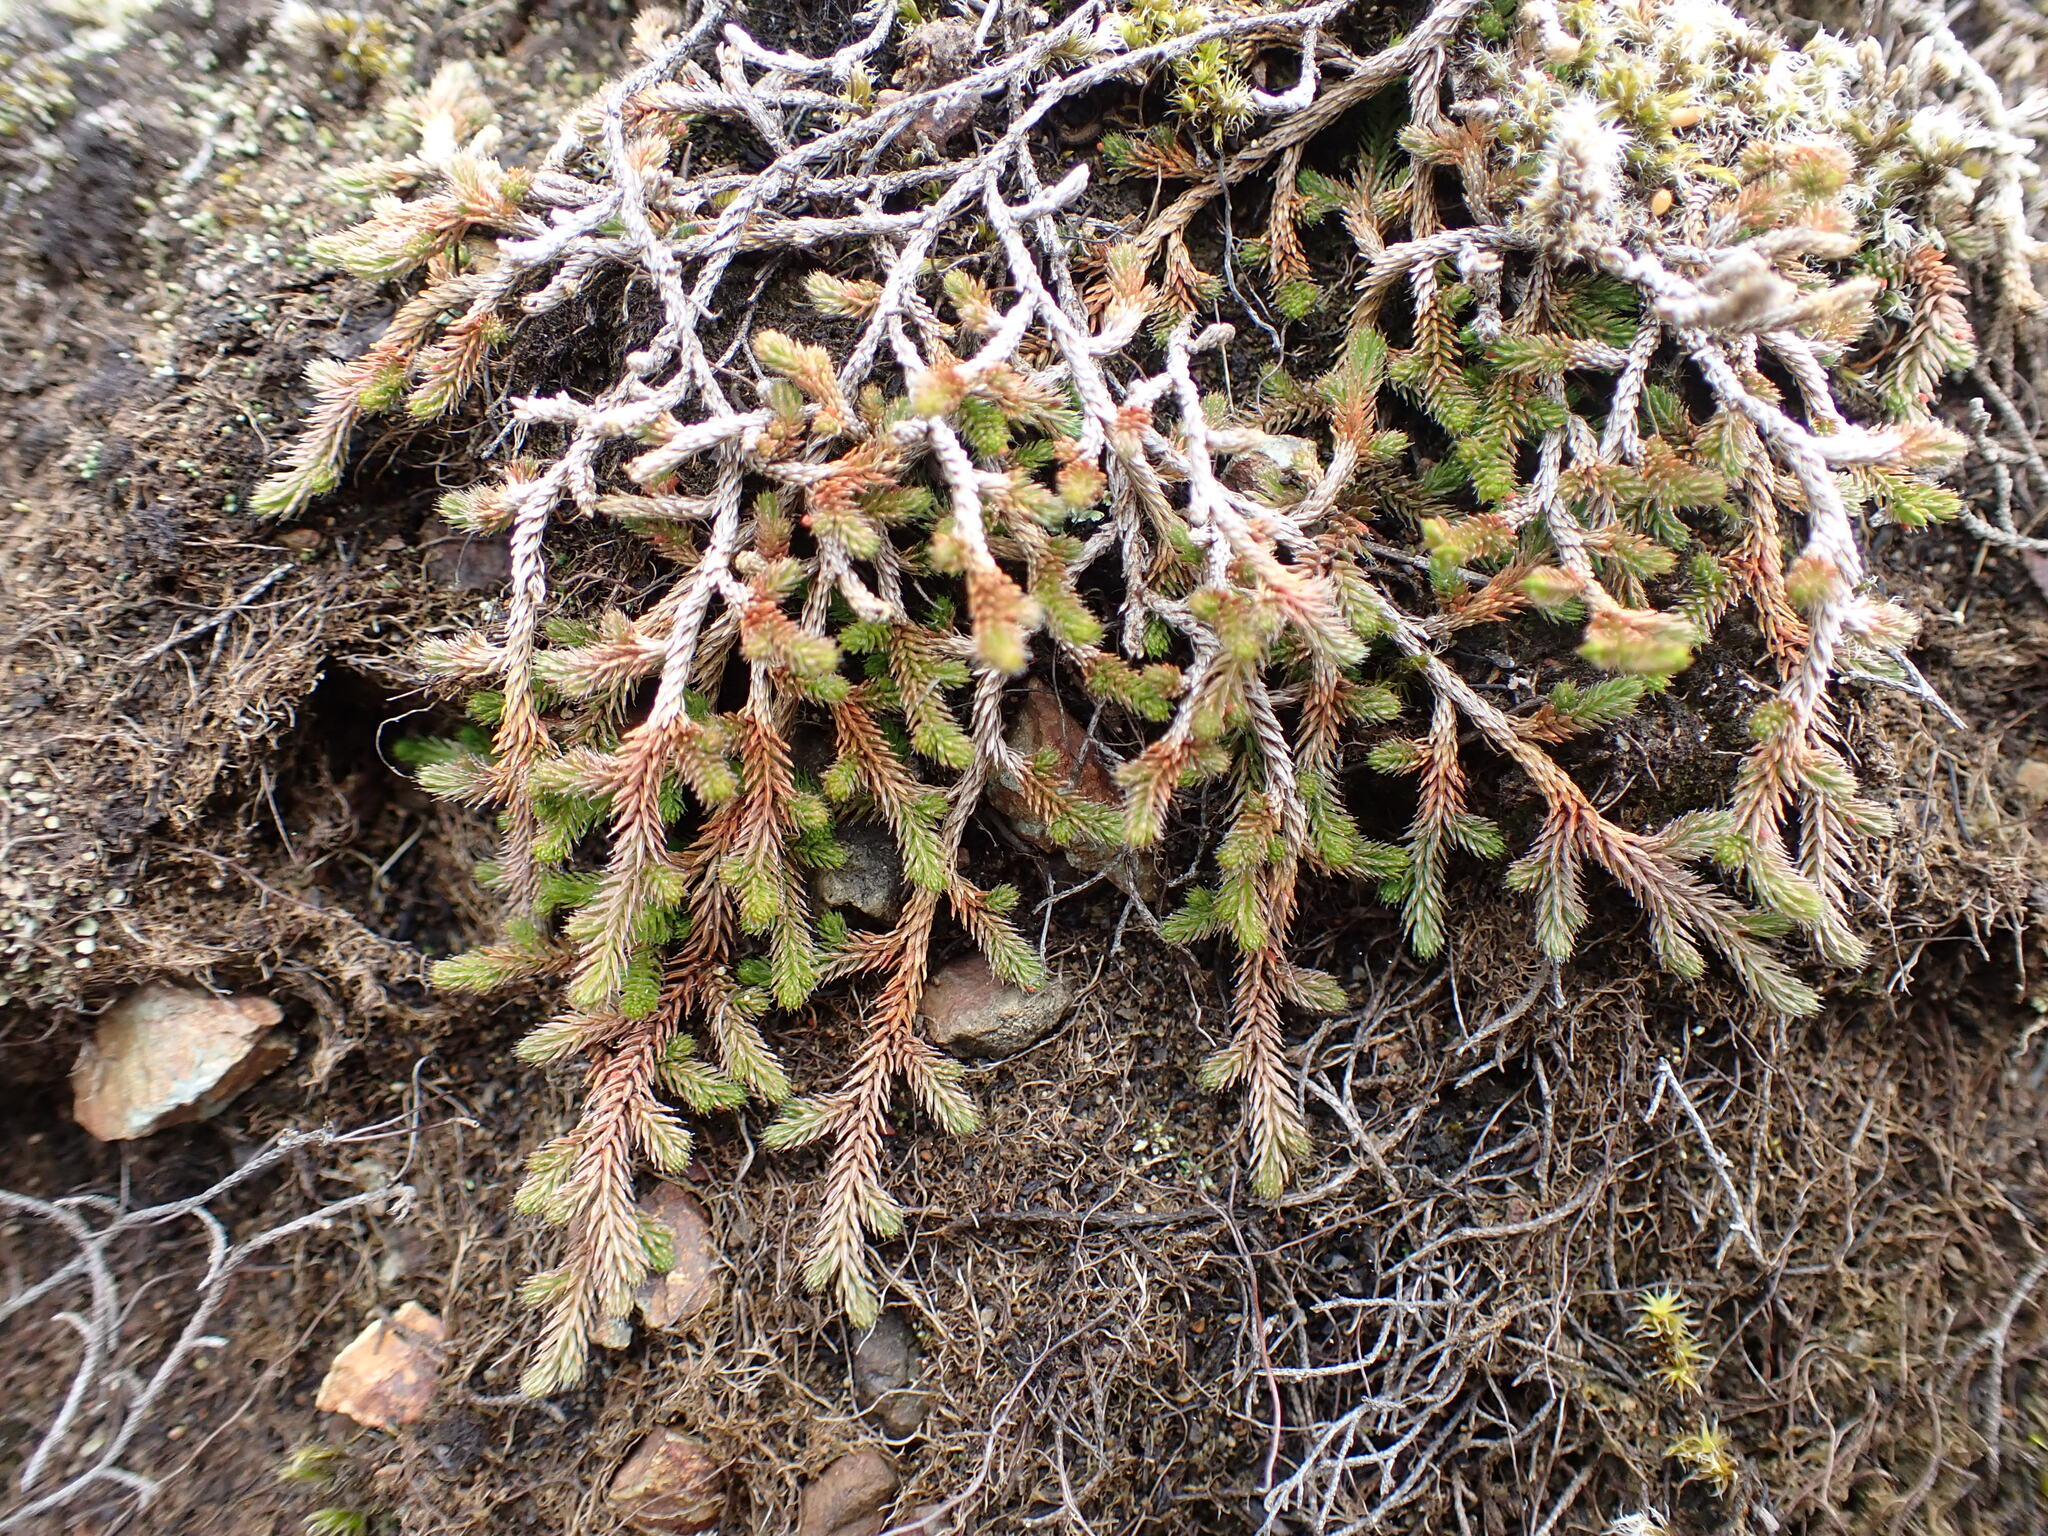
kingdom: Plantae
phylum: Tracheophyta
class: Lycopodiopsida
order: Selaginellales
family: Selaginellaceae
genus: Selaginella
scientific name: Selaginella wallacei
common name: Wallace's selaginella
